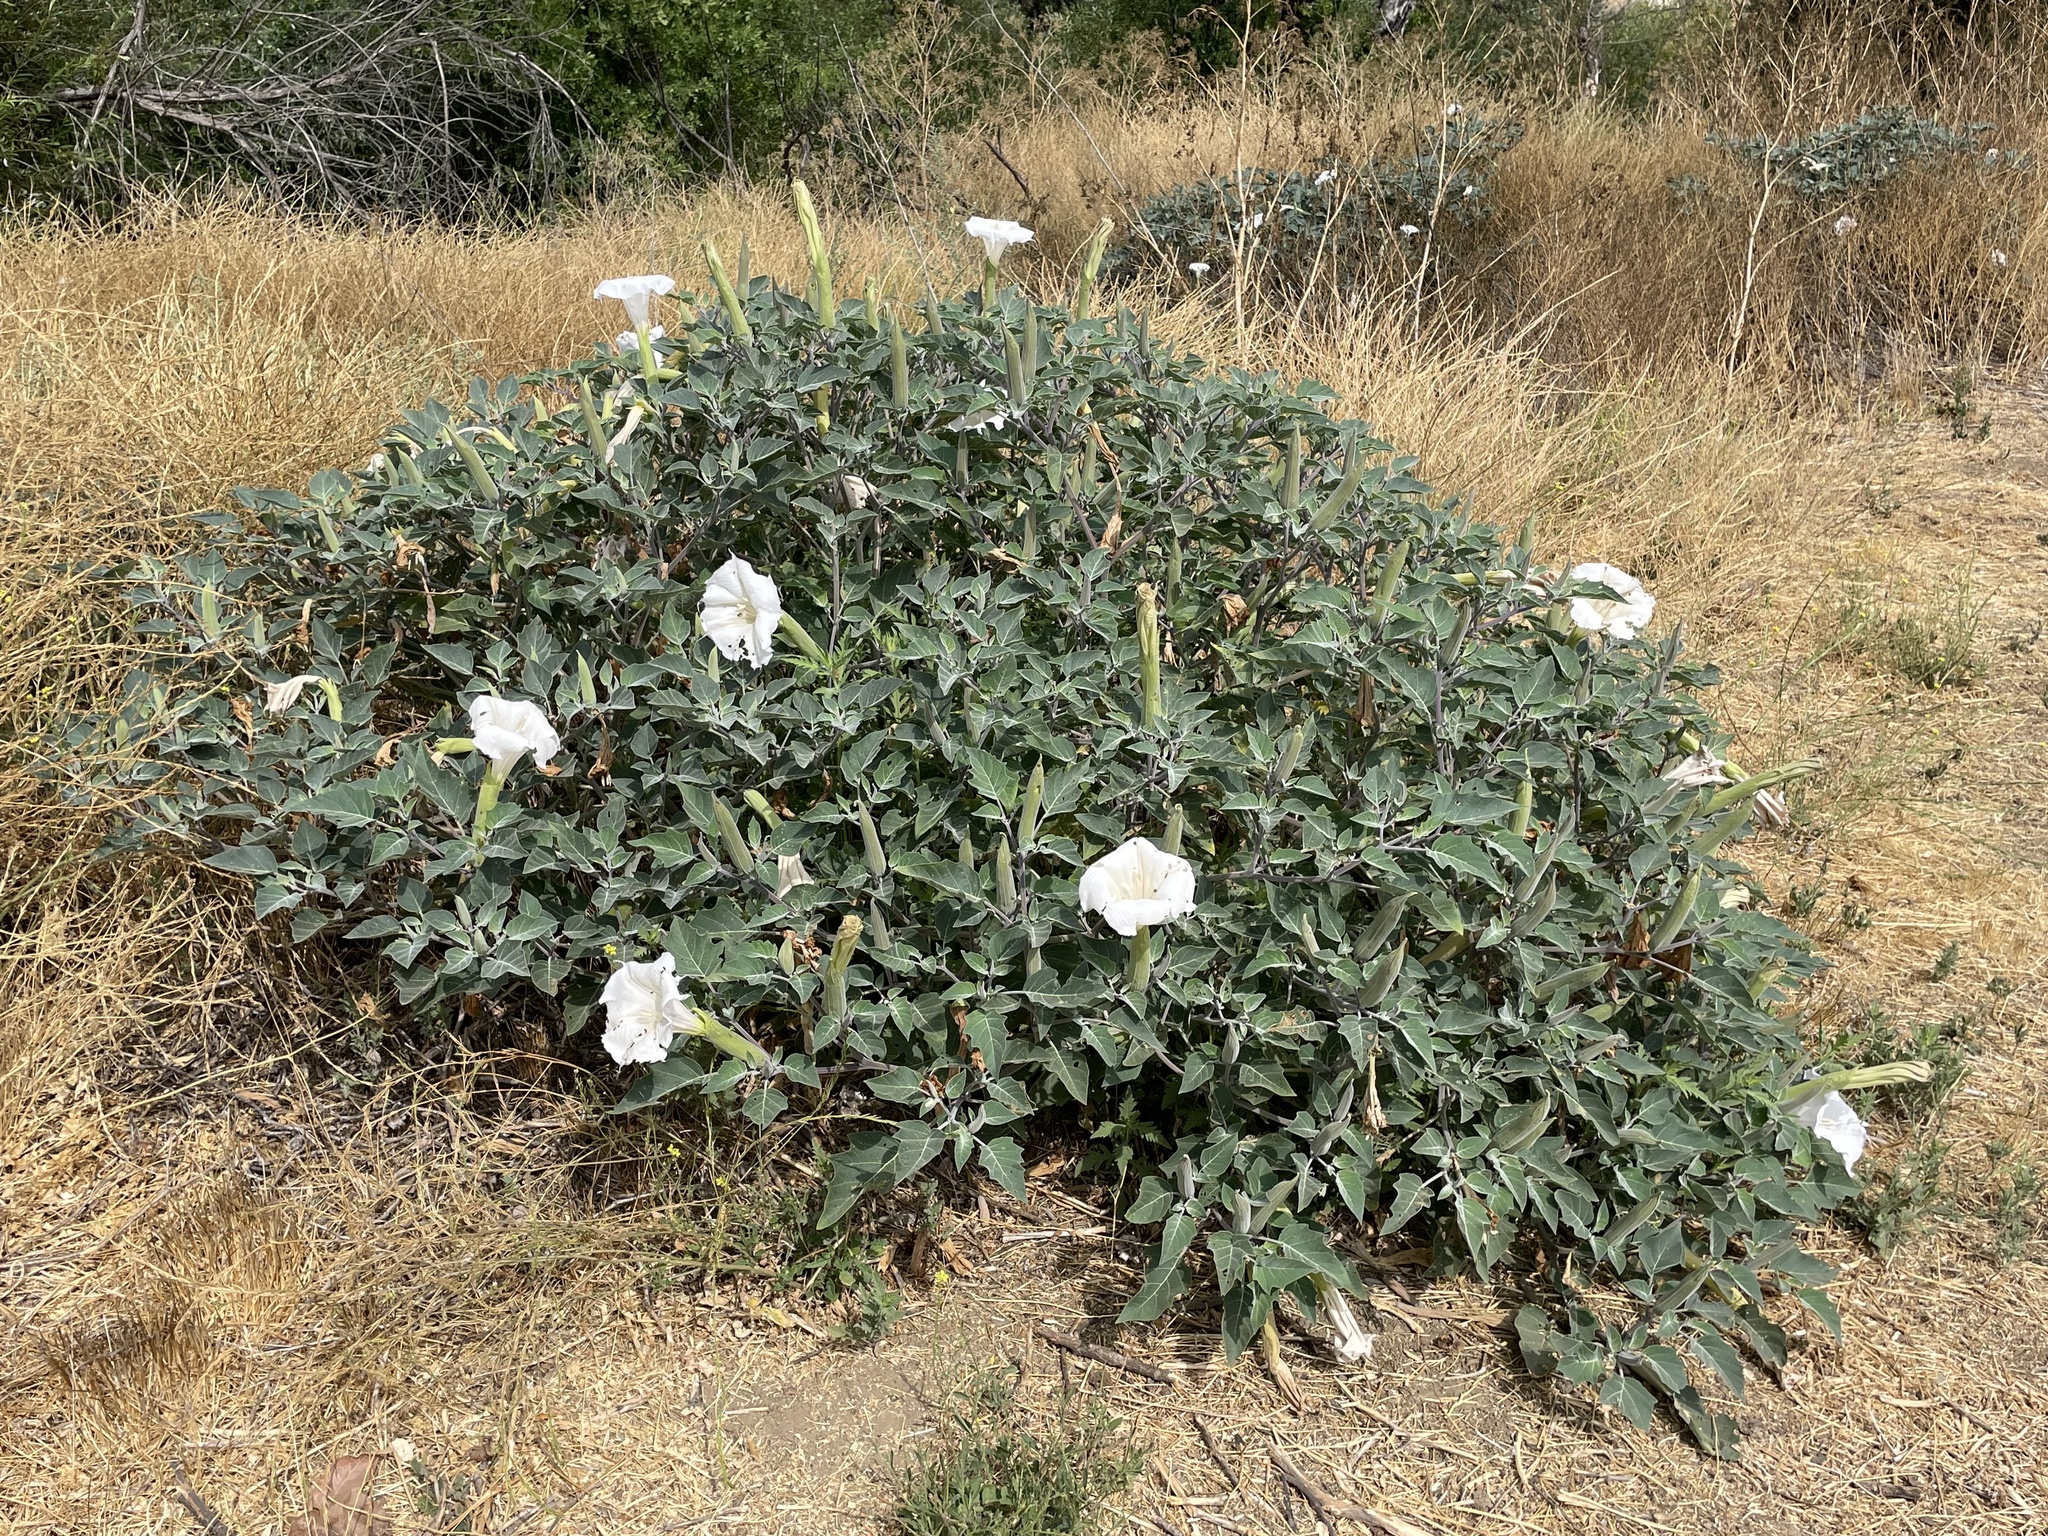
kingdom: Plantae
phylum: Tracheophyta
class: Magnoliopsida
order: Solanales
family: Solanaceae
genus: Datura
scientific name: Datura wrightii
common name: Sacred thorn-apple
